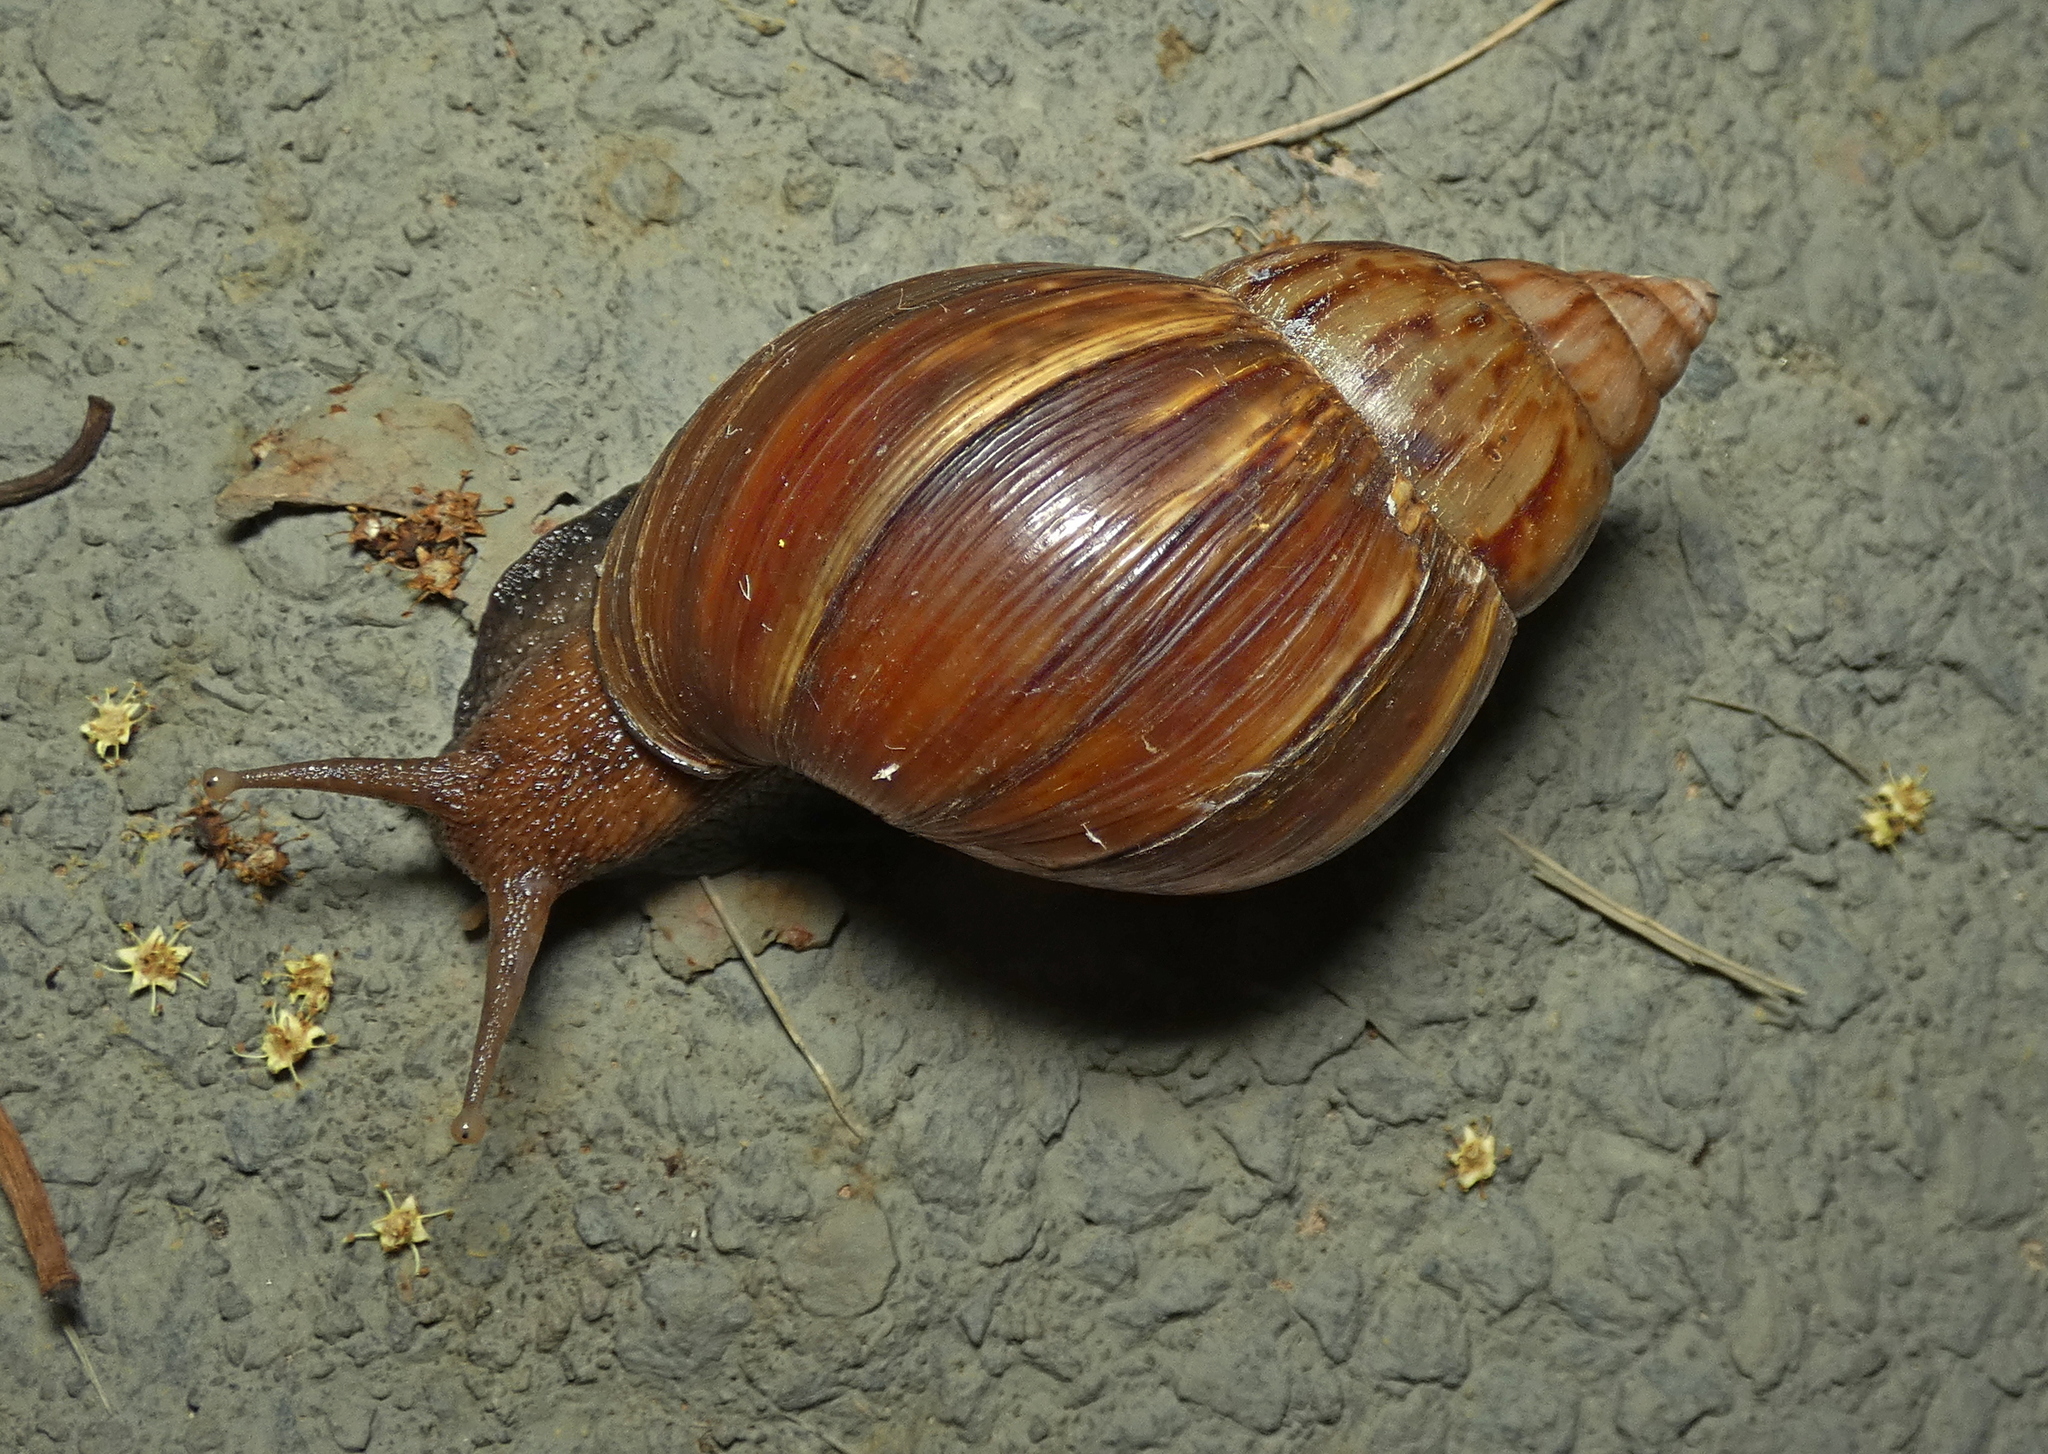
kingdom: Animalia
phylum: Mollusca
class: Gastropoda
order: Stylommatophora
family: Achatinidae
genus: Lissachatina
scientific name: Lissachatina fulica
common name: Giant african snail
